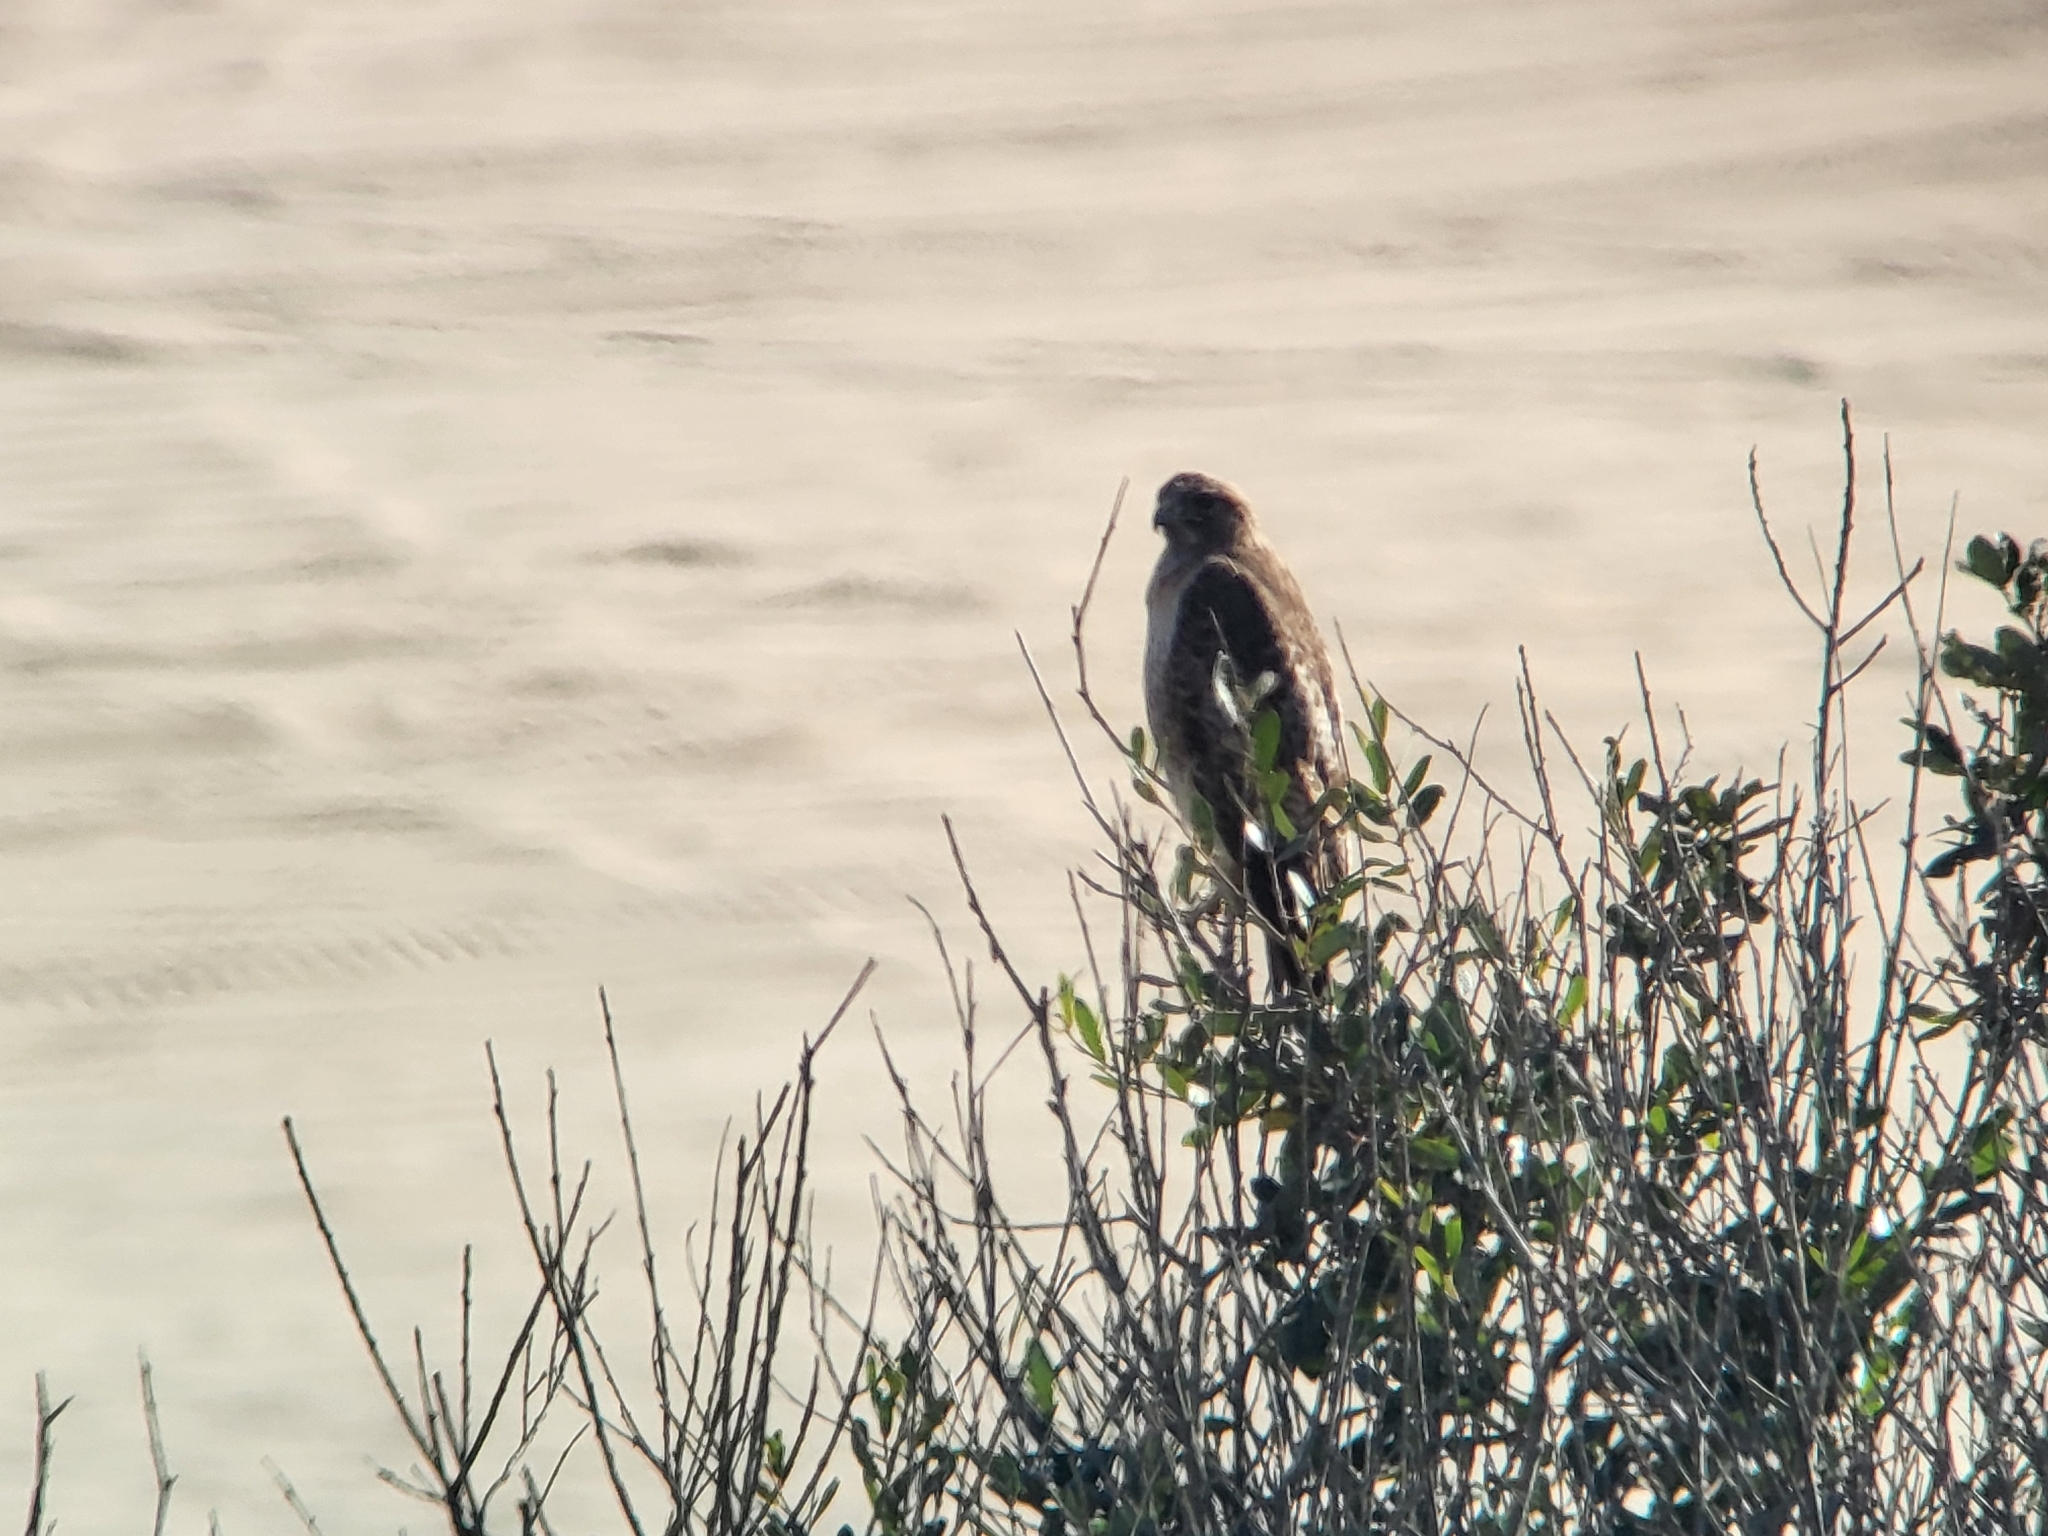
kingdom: Animalia
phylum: Chordata
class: Aves
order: Accipitriformes
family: Accipitridae
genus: Buteo
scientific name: Buteo jamaicensis
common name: Red-tailed hawk
